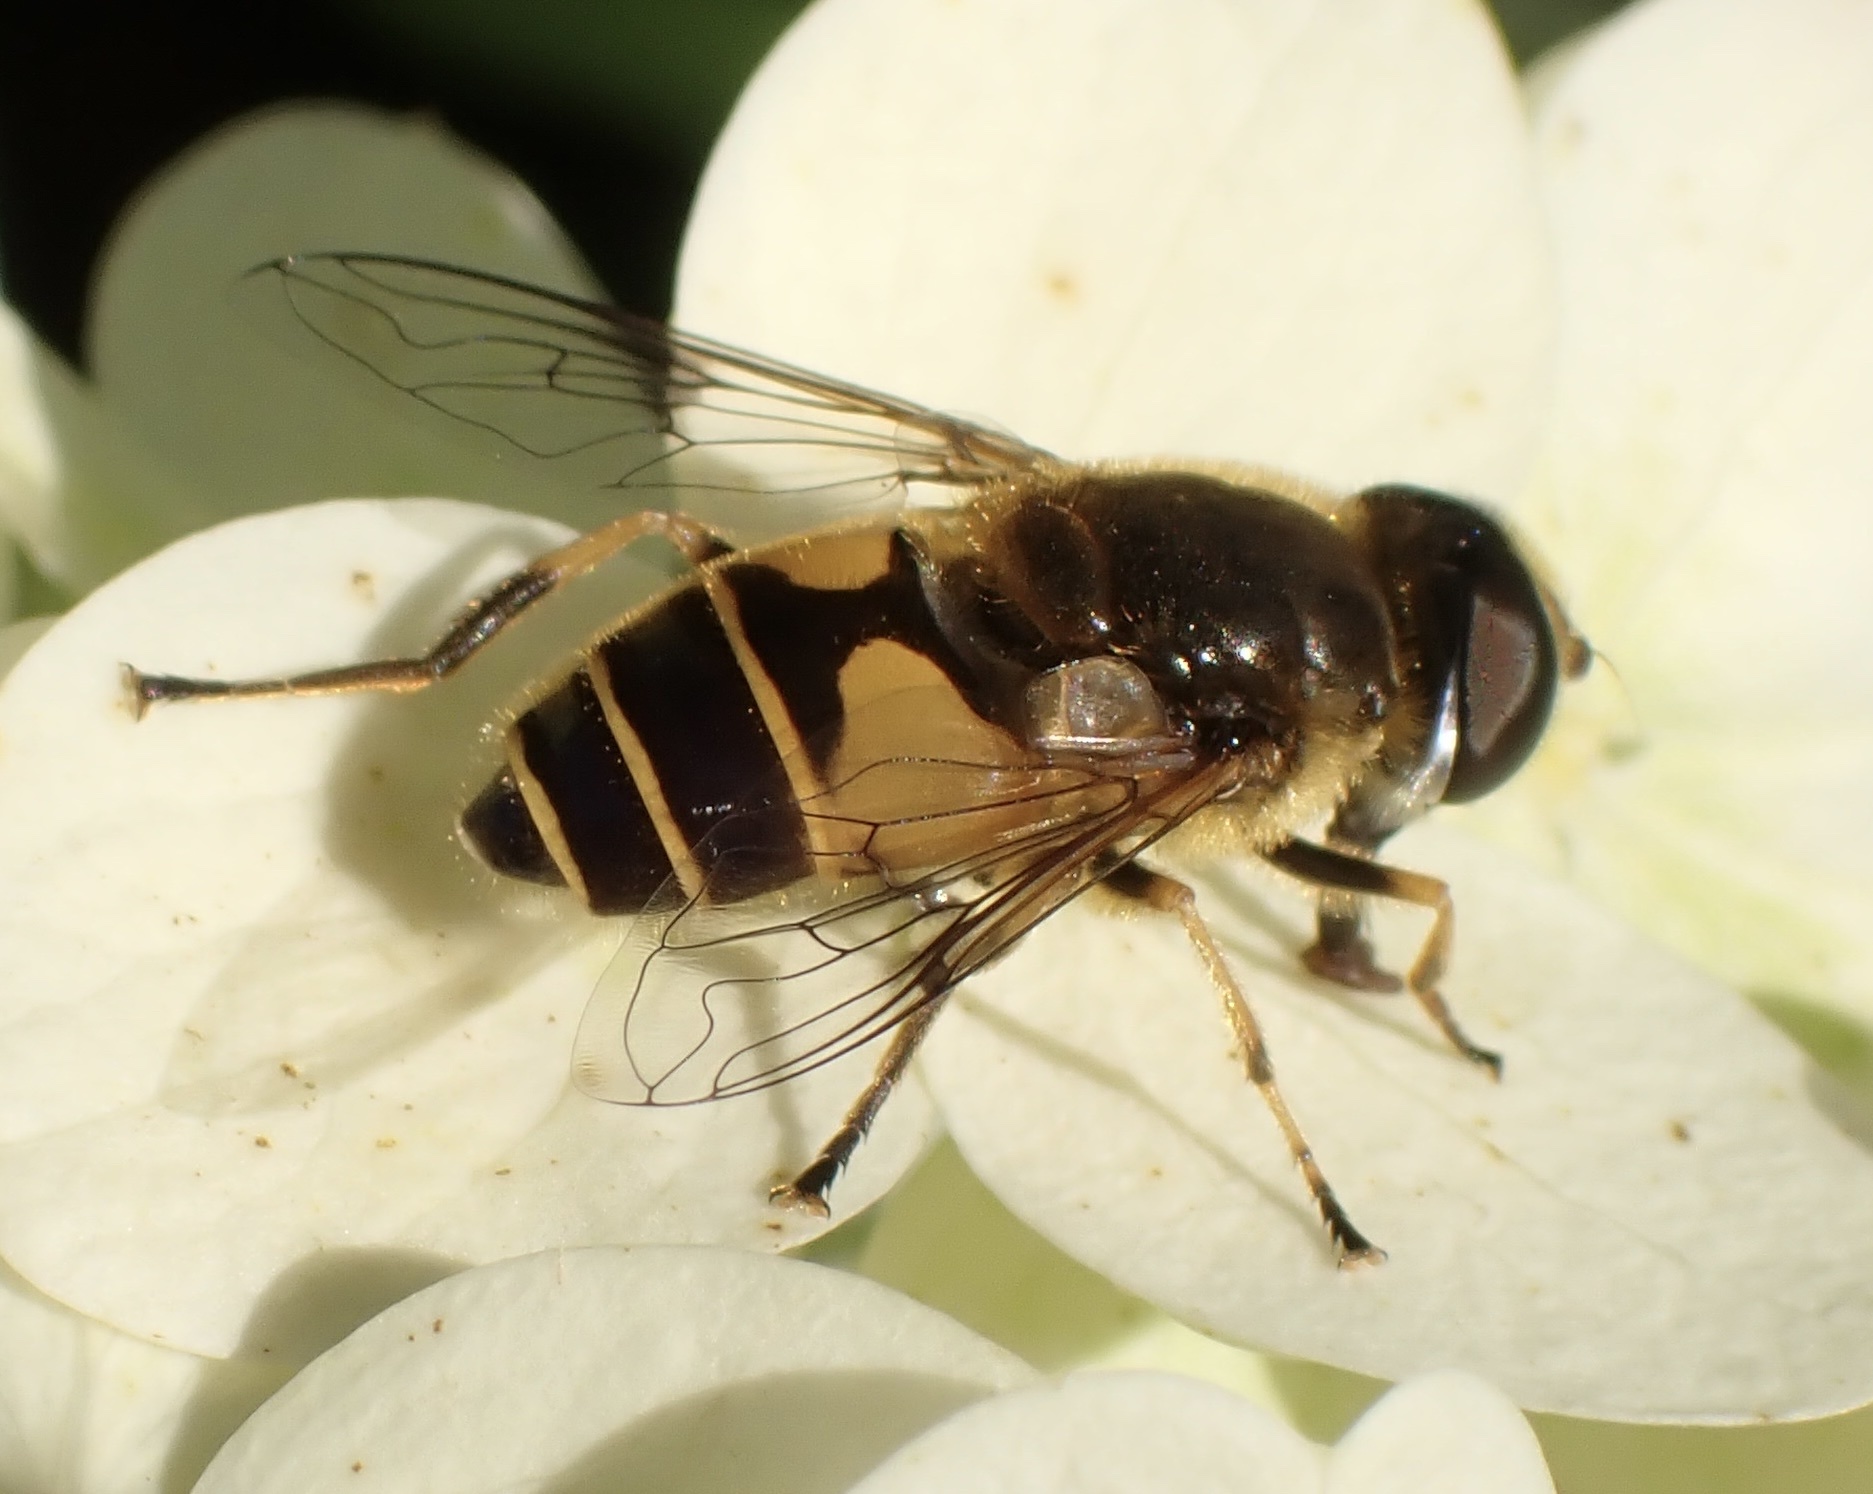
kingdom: Animalia
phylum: Arthropoda
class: Insecta
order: Diptera
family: Syrphidae
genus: Cheilosia
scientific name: Cheilosia morio
